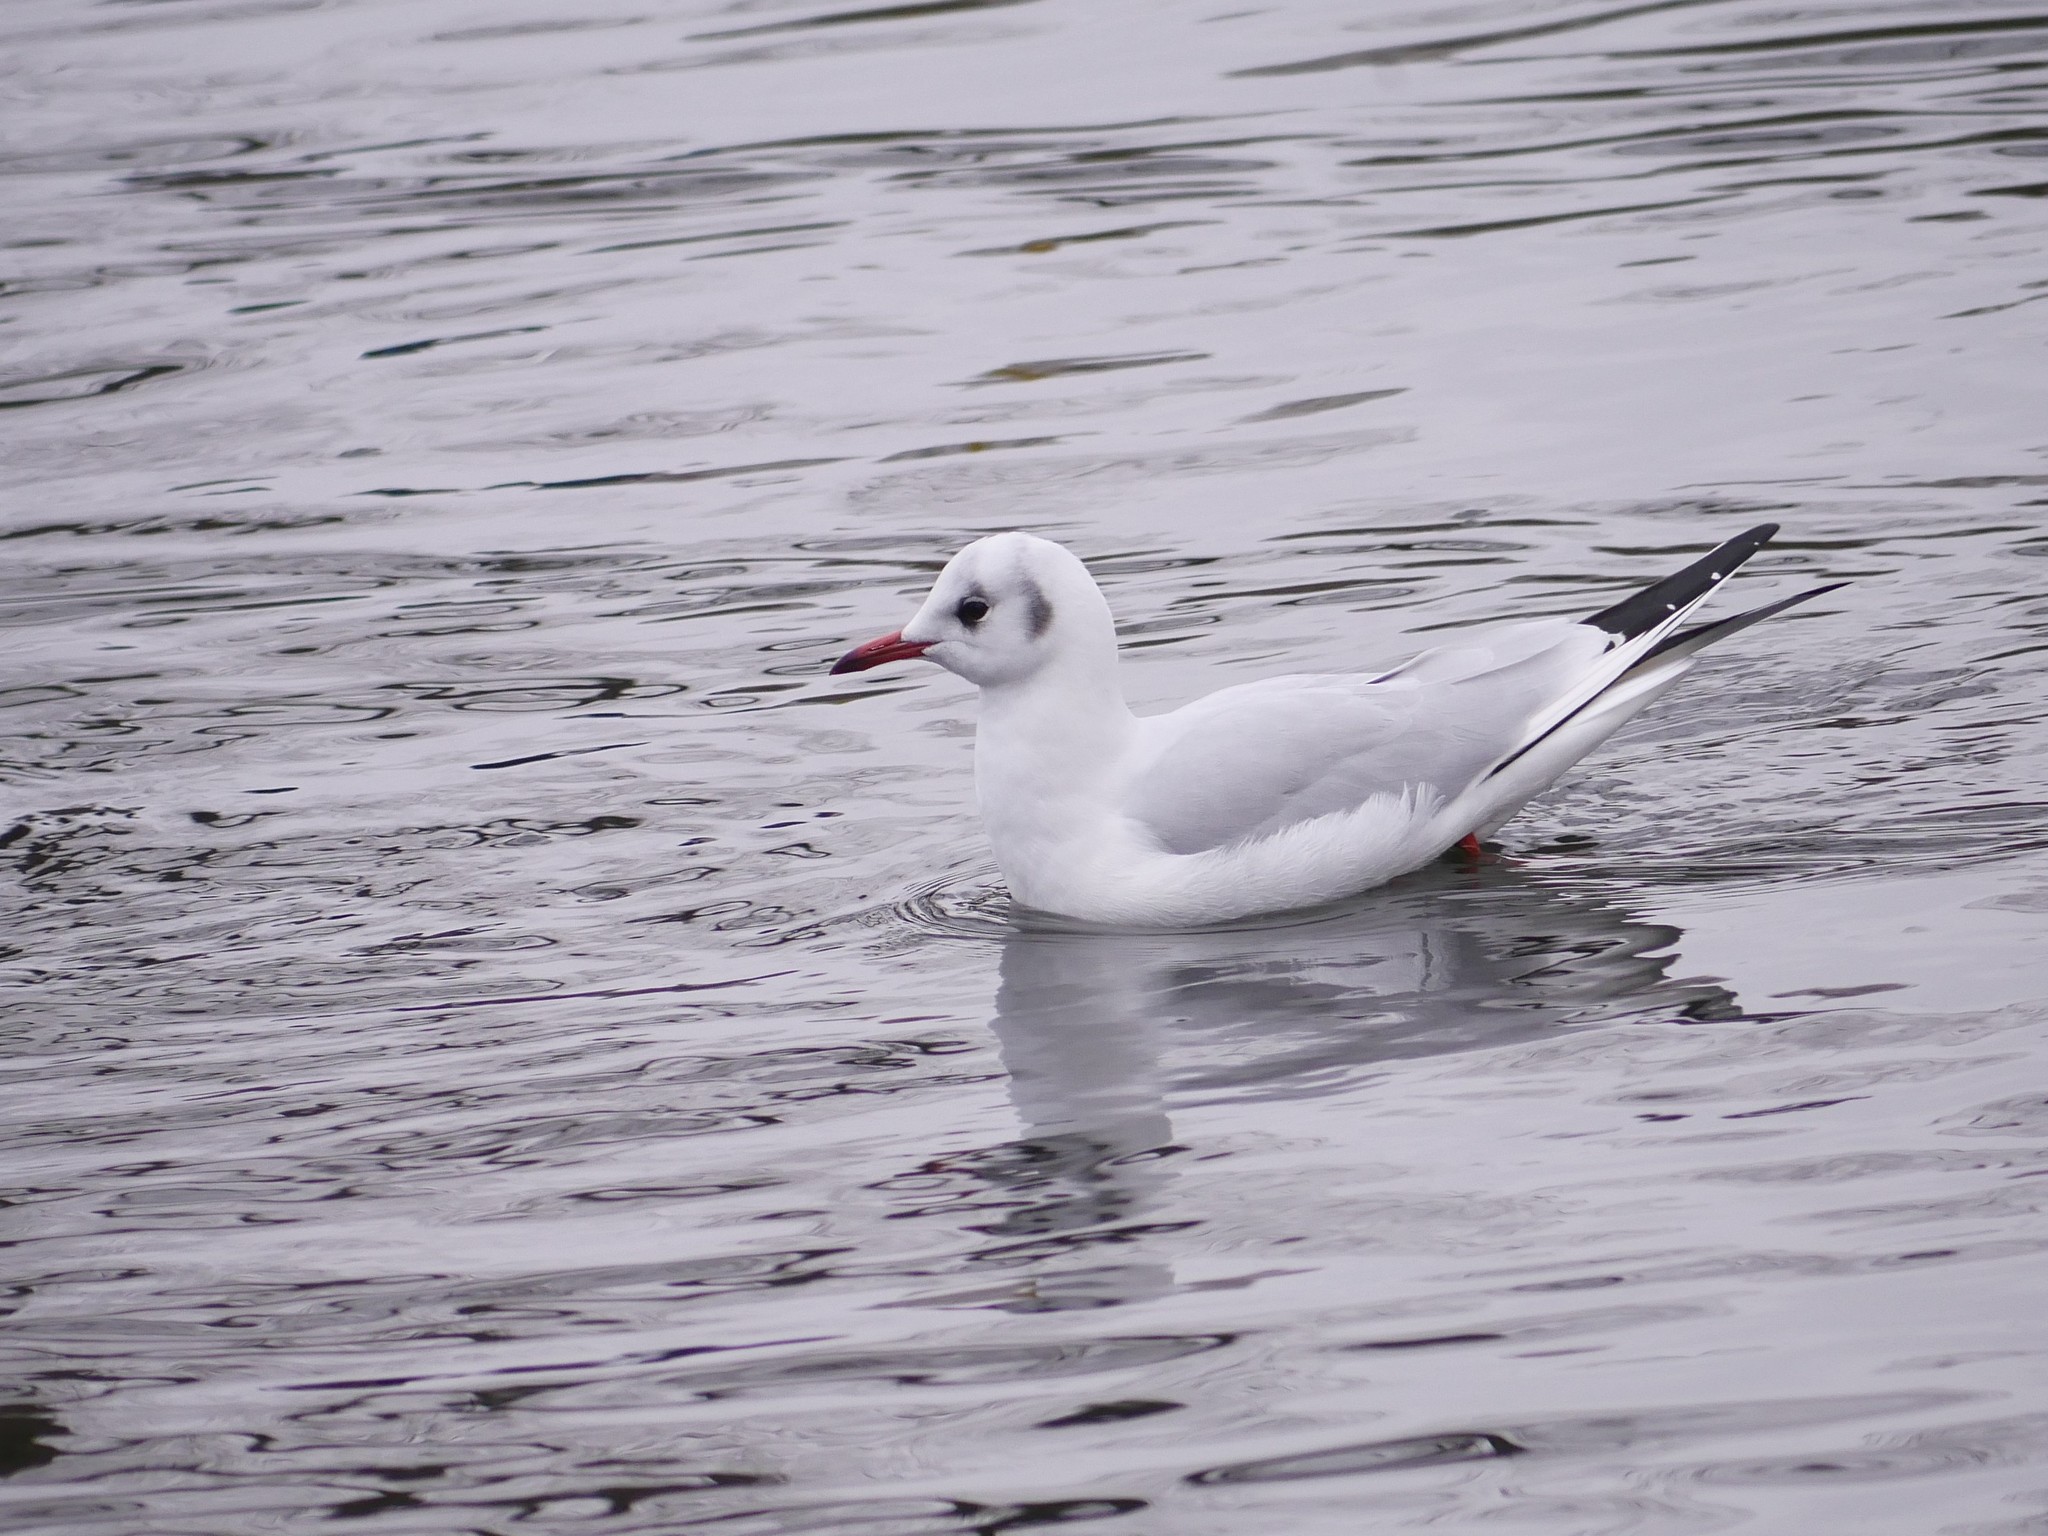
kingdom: Animalia
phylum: Chordata
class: Aves
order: Charadriiformes
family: Laridae
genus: Chroicocephalus
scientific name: Chroicocephalus ridibundus
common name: Black-headed gull
